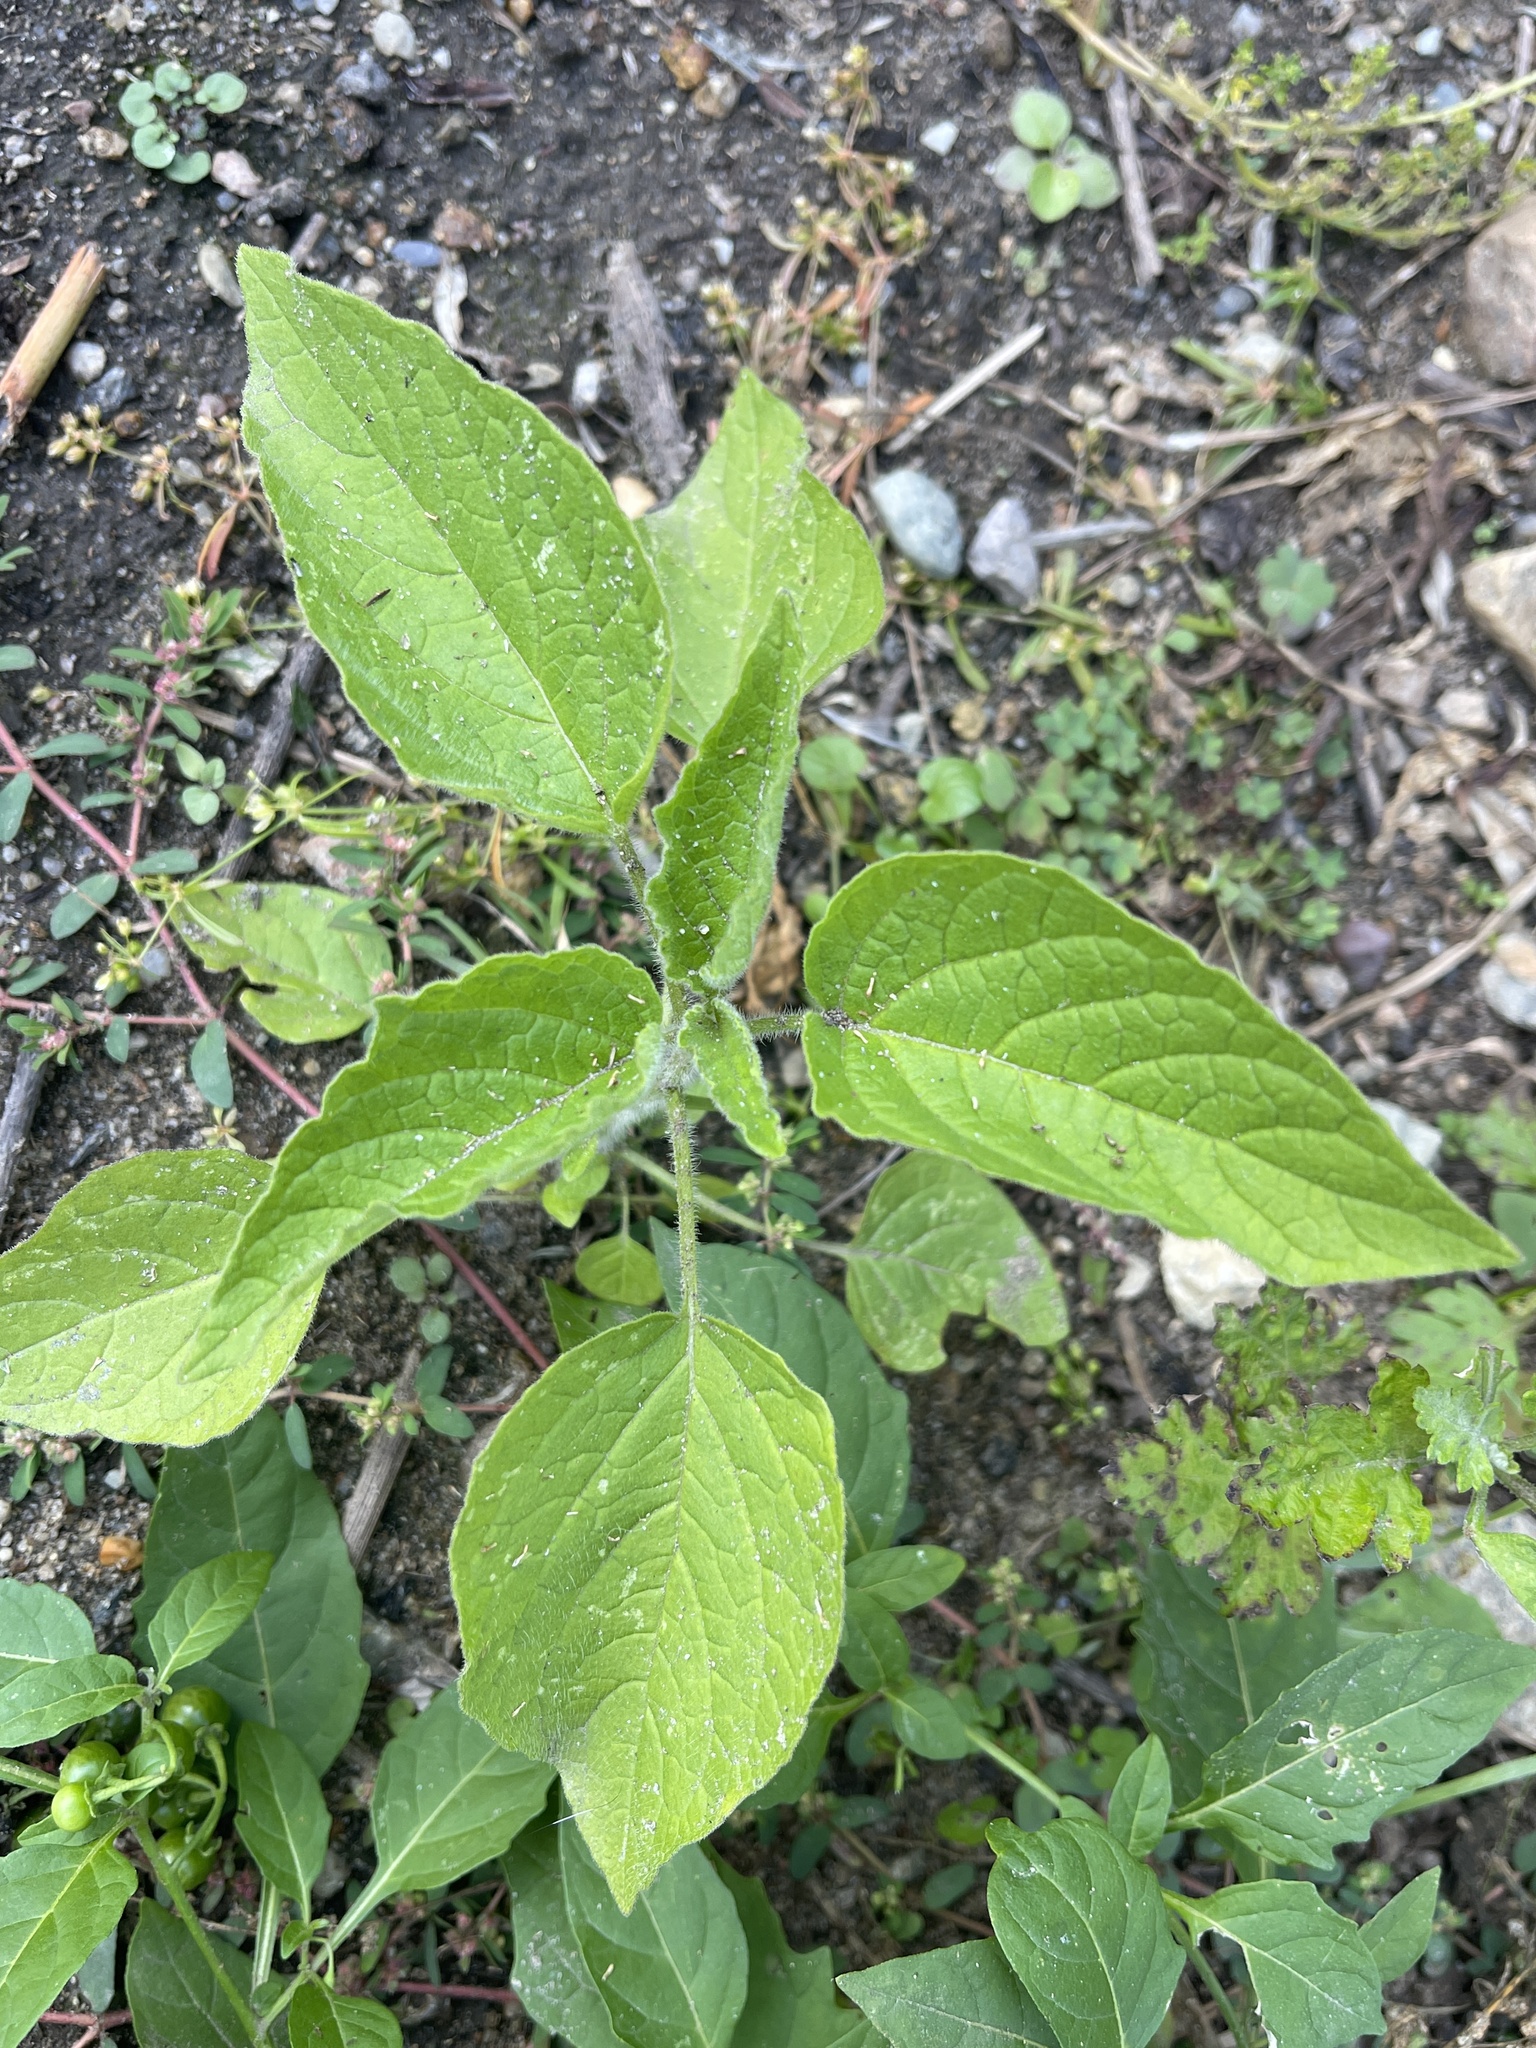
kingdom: Plantae
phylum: Tracheophyta
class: Magnoliopsida
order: Solanales
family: Solanaceae
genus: Physalis
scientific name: Physalis heterophylla
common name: Clammy ground-cherry
